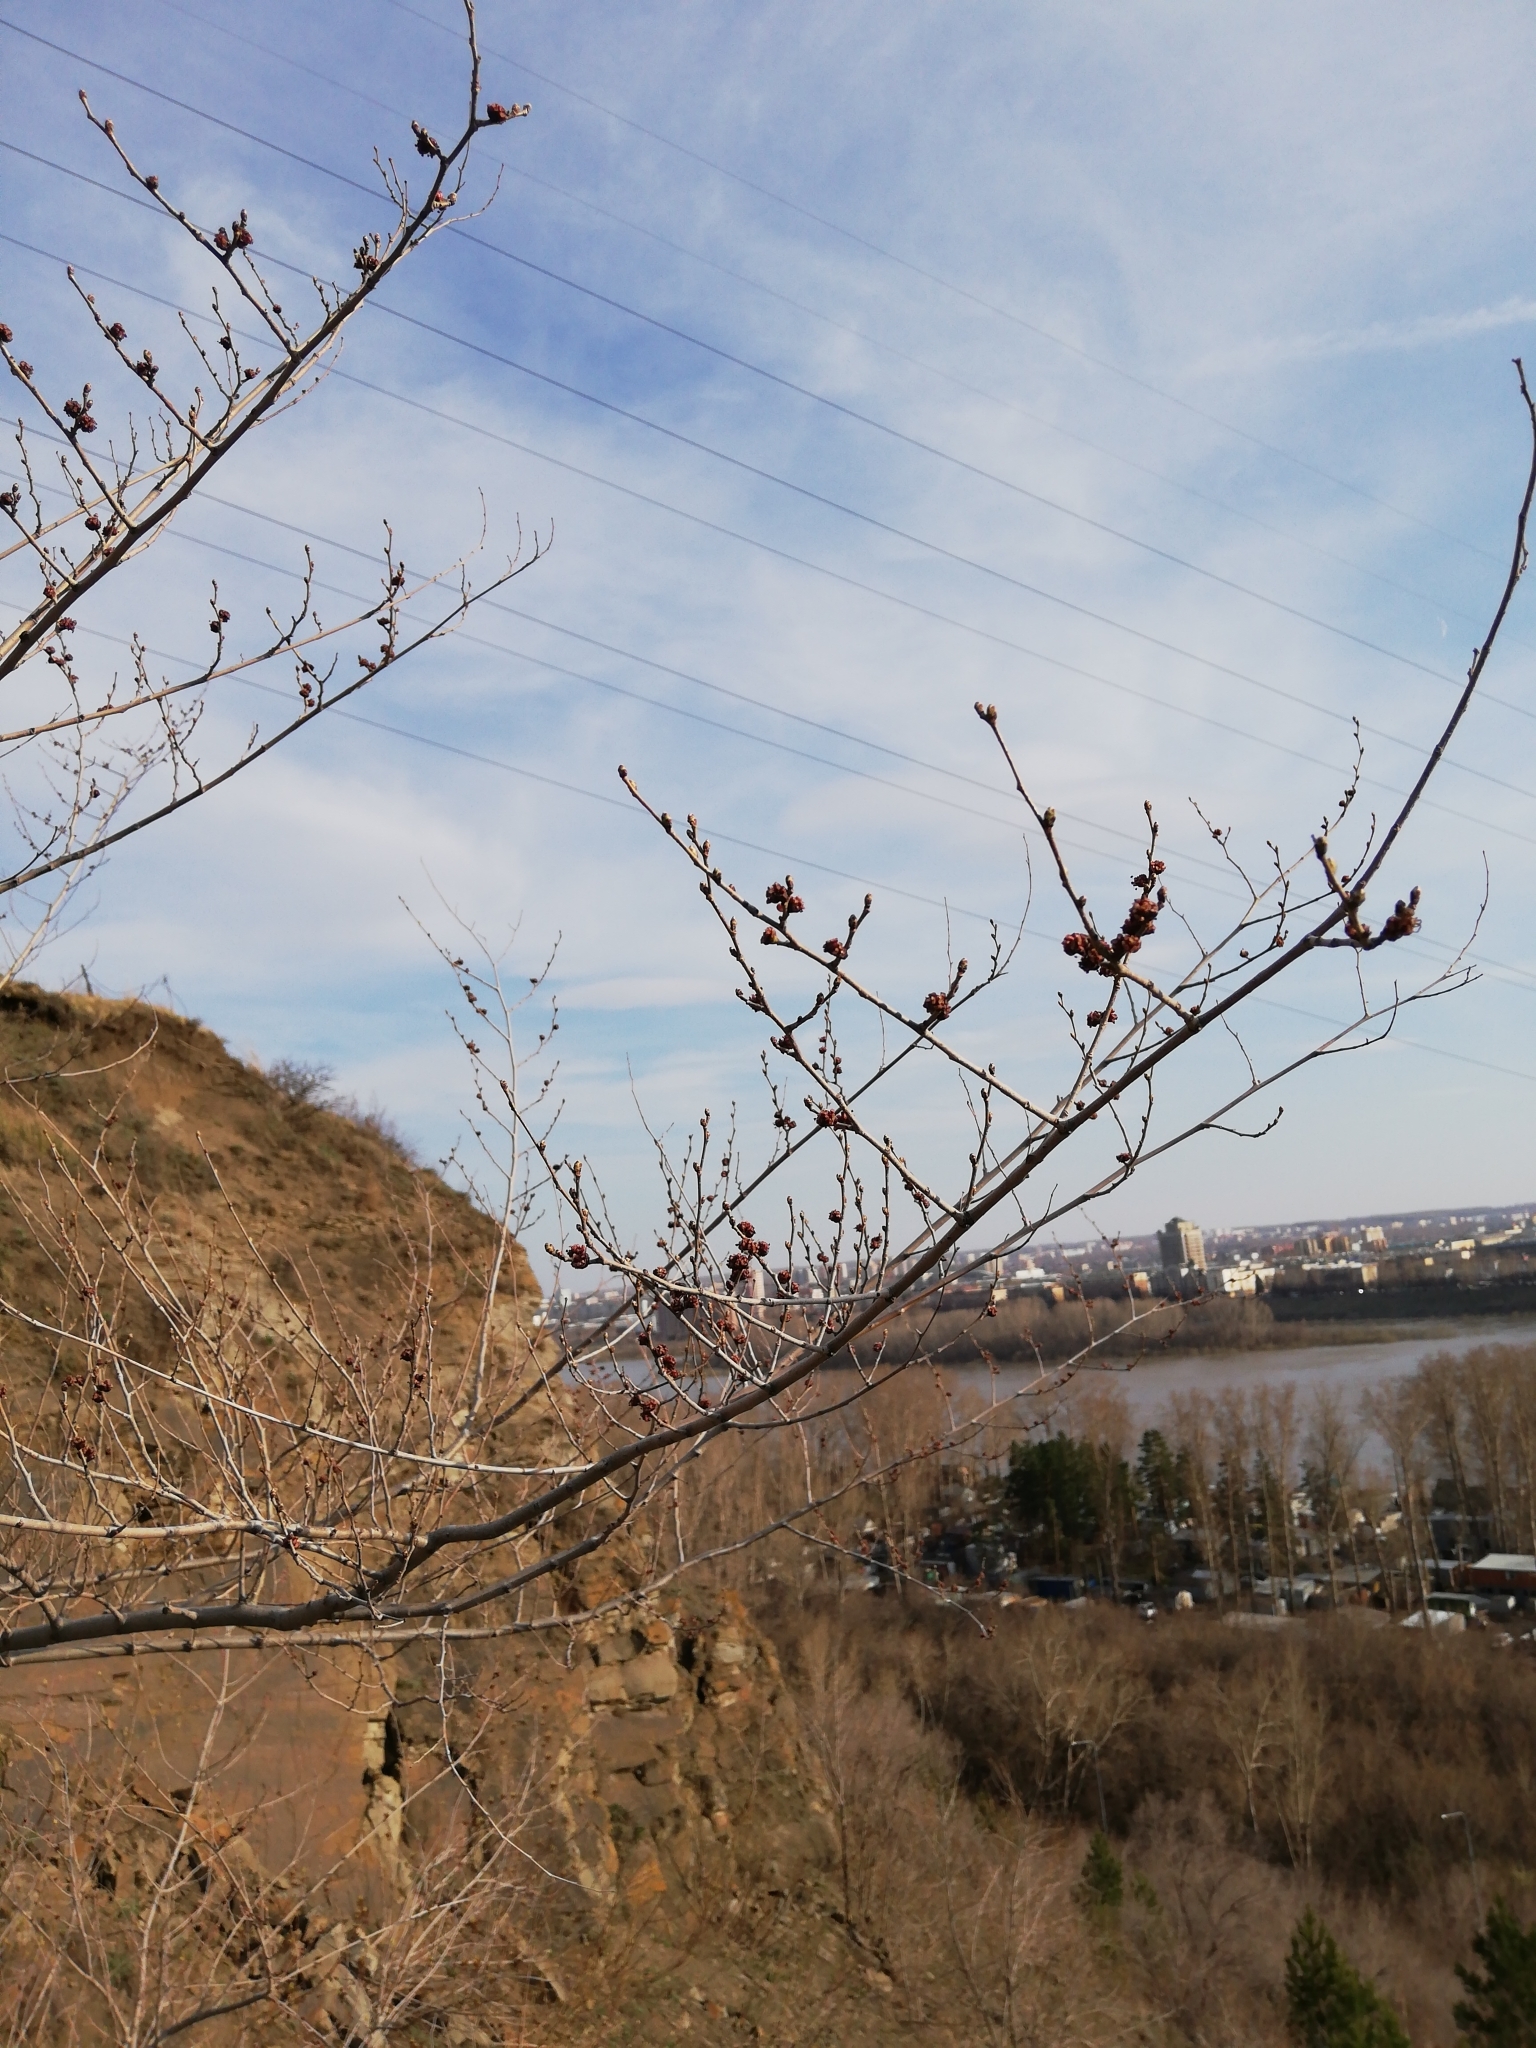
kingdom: Plantae
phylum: Tracheophyta
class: Magnoliopsida
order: Rosales
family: Ulmaceae
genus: Ulmus
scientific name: Ulmus pumila
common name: Siberian elm
